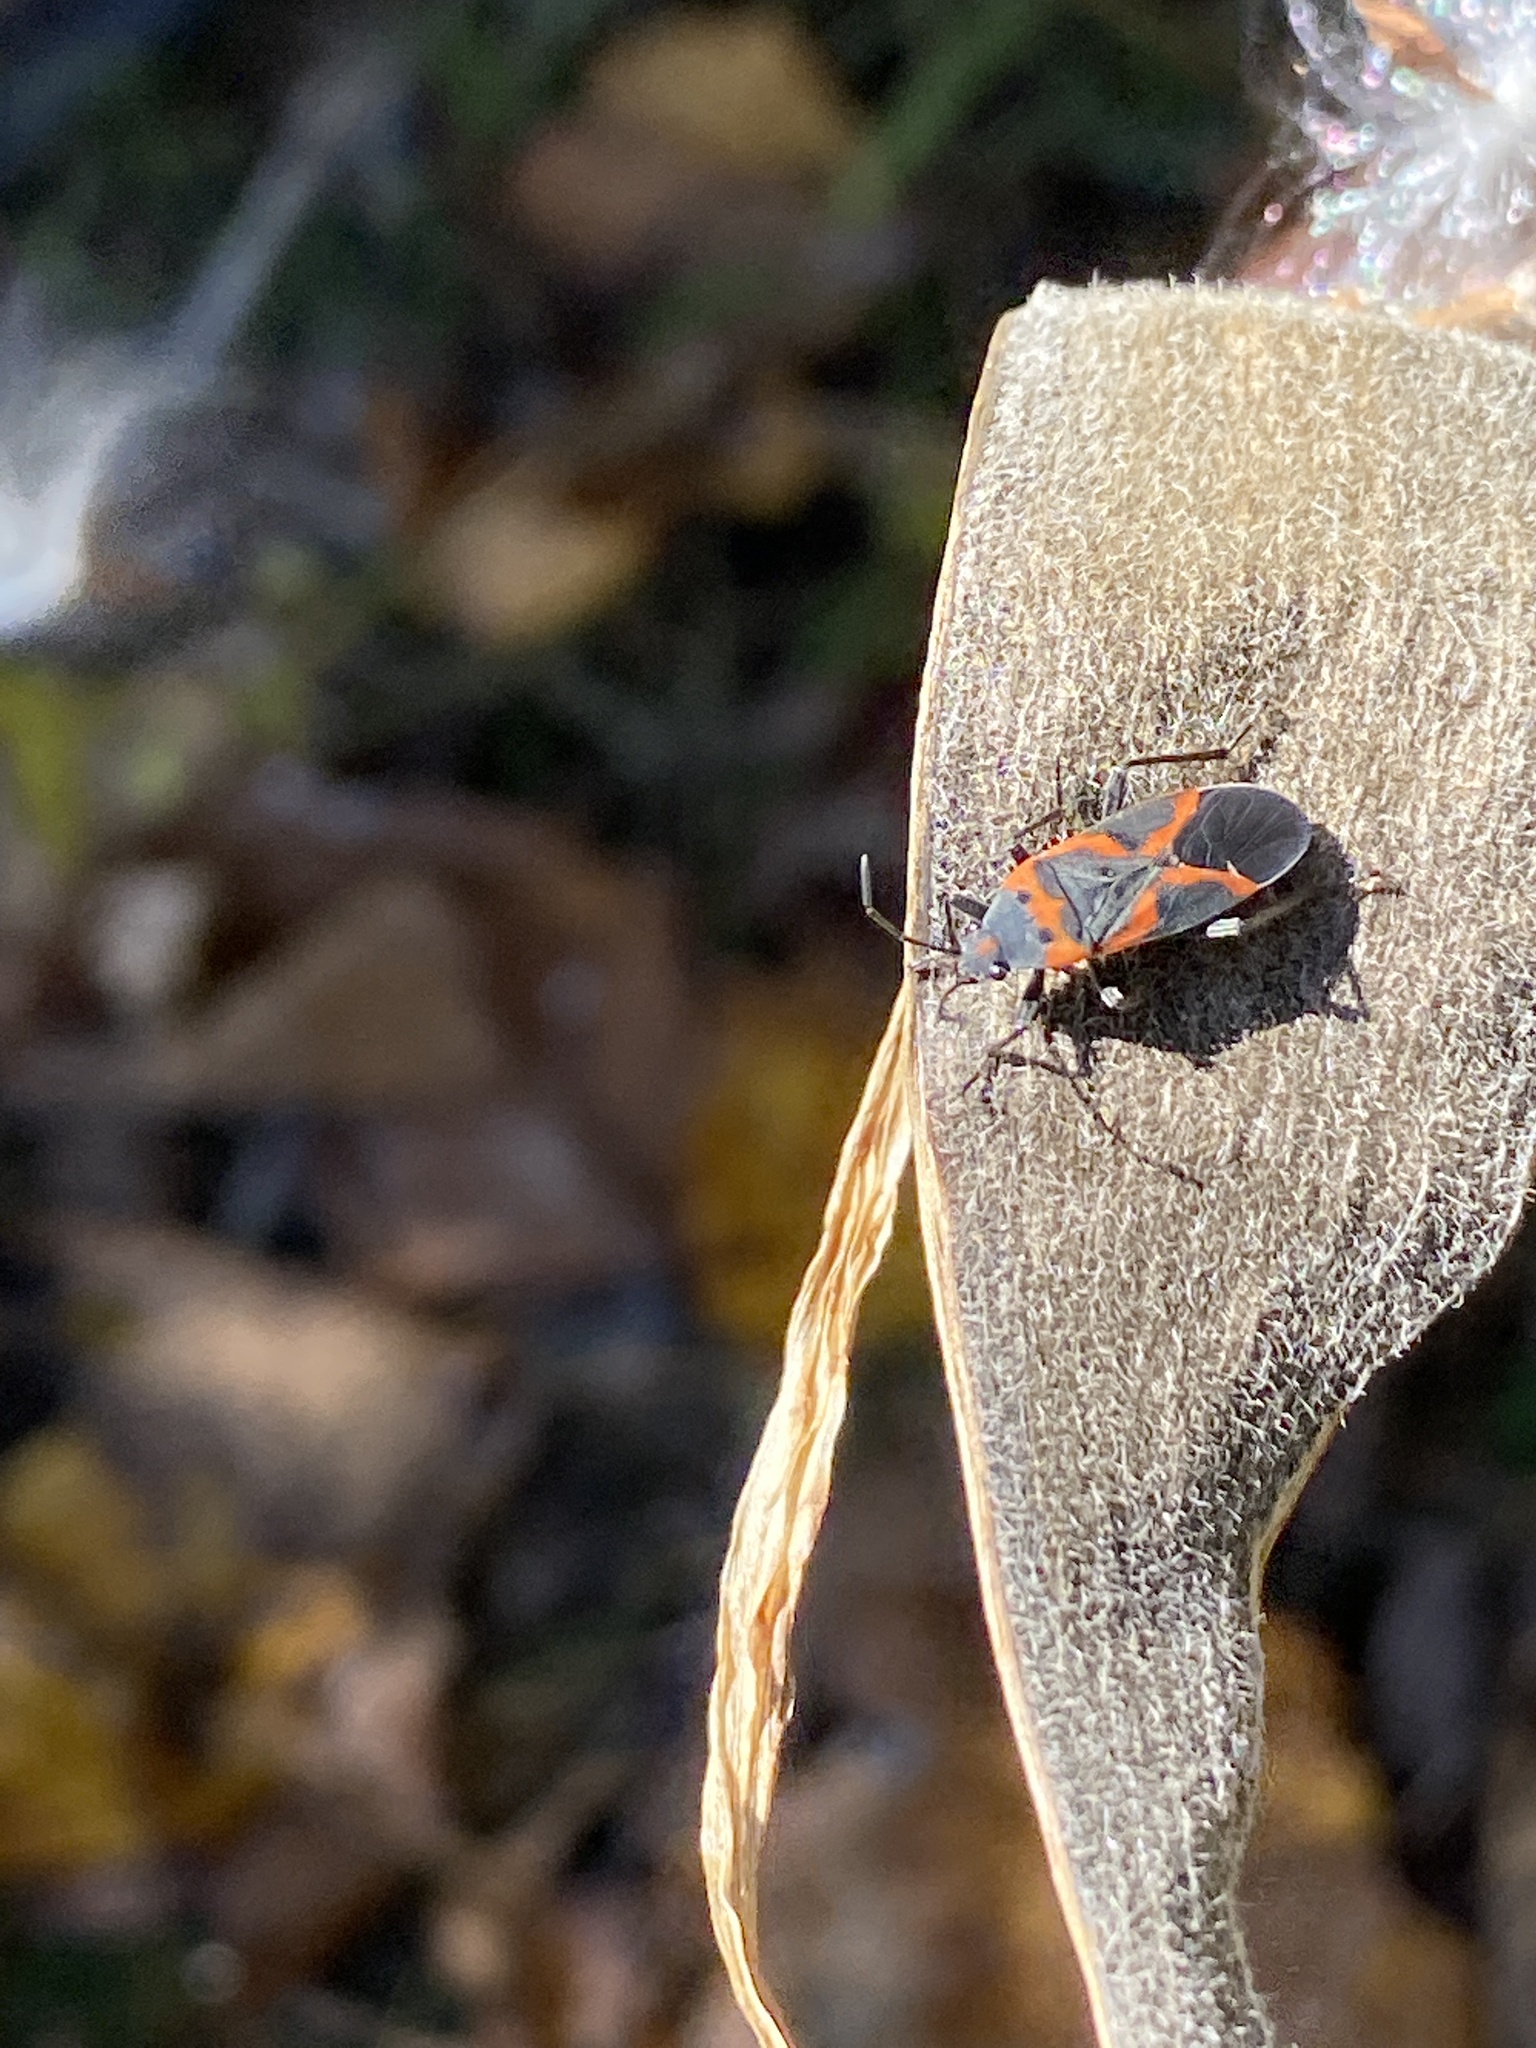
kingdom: Animalia
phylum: Arthropoda
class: Insecta
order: Hemiptera
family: Lygaeidae
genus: Lygaeus
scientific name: Lygaeus kalmii
